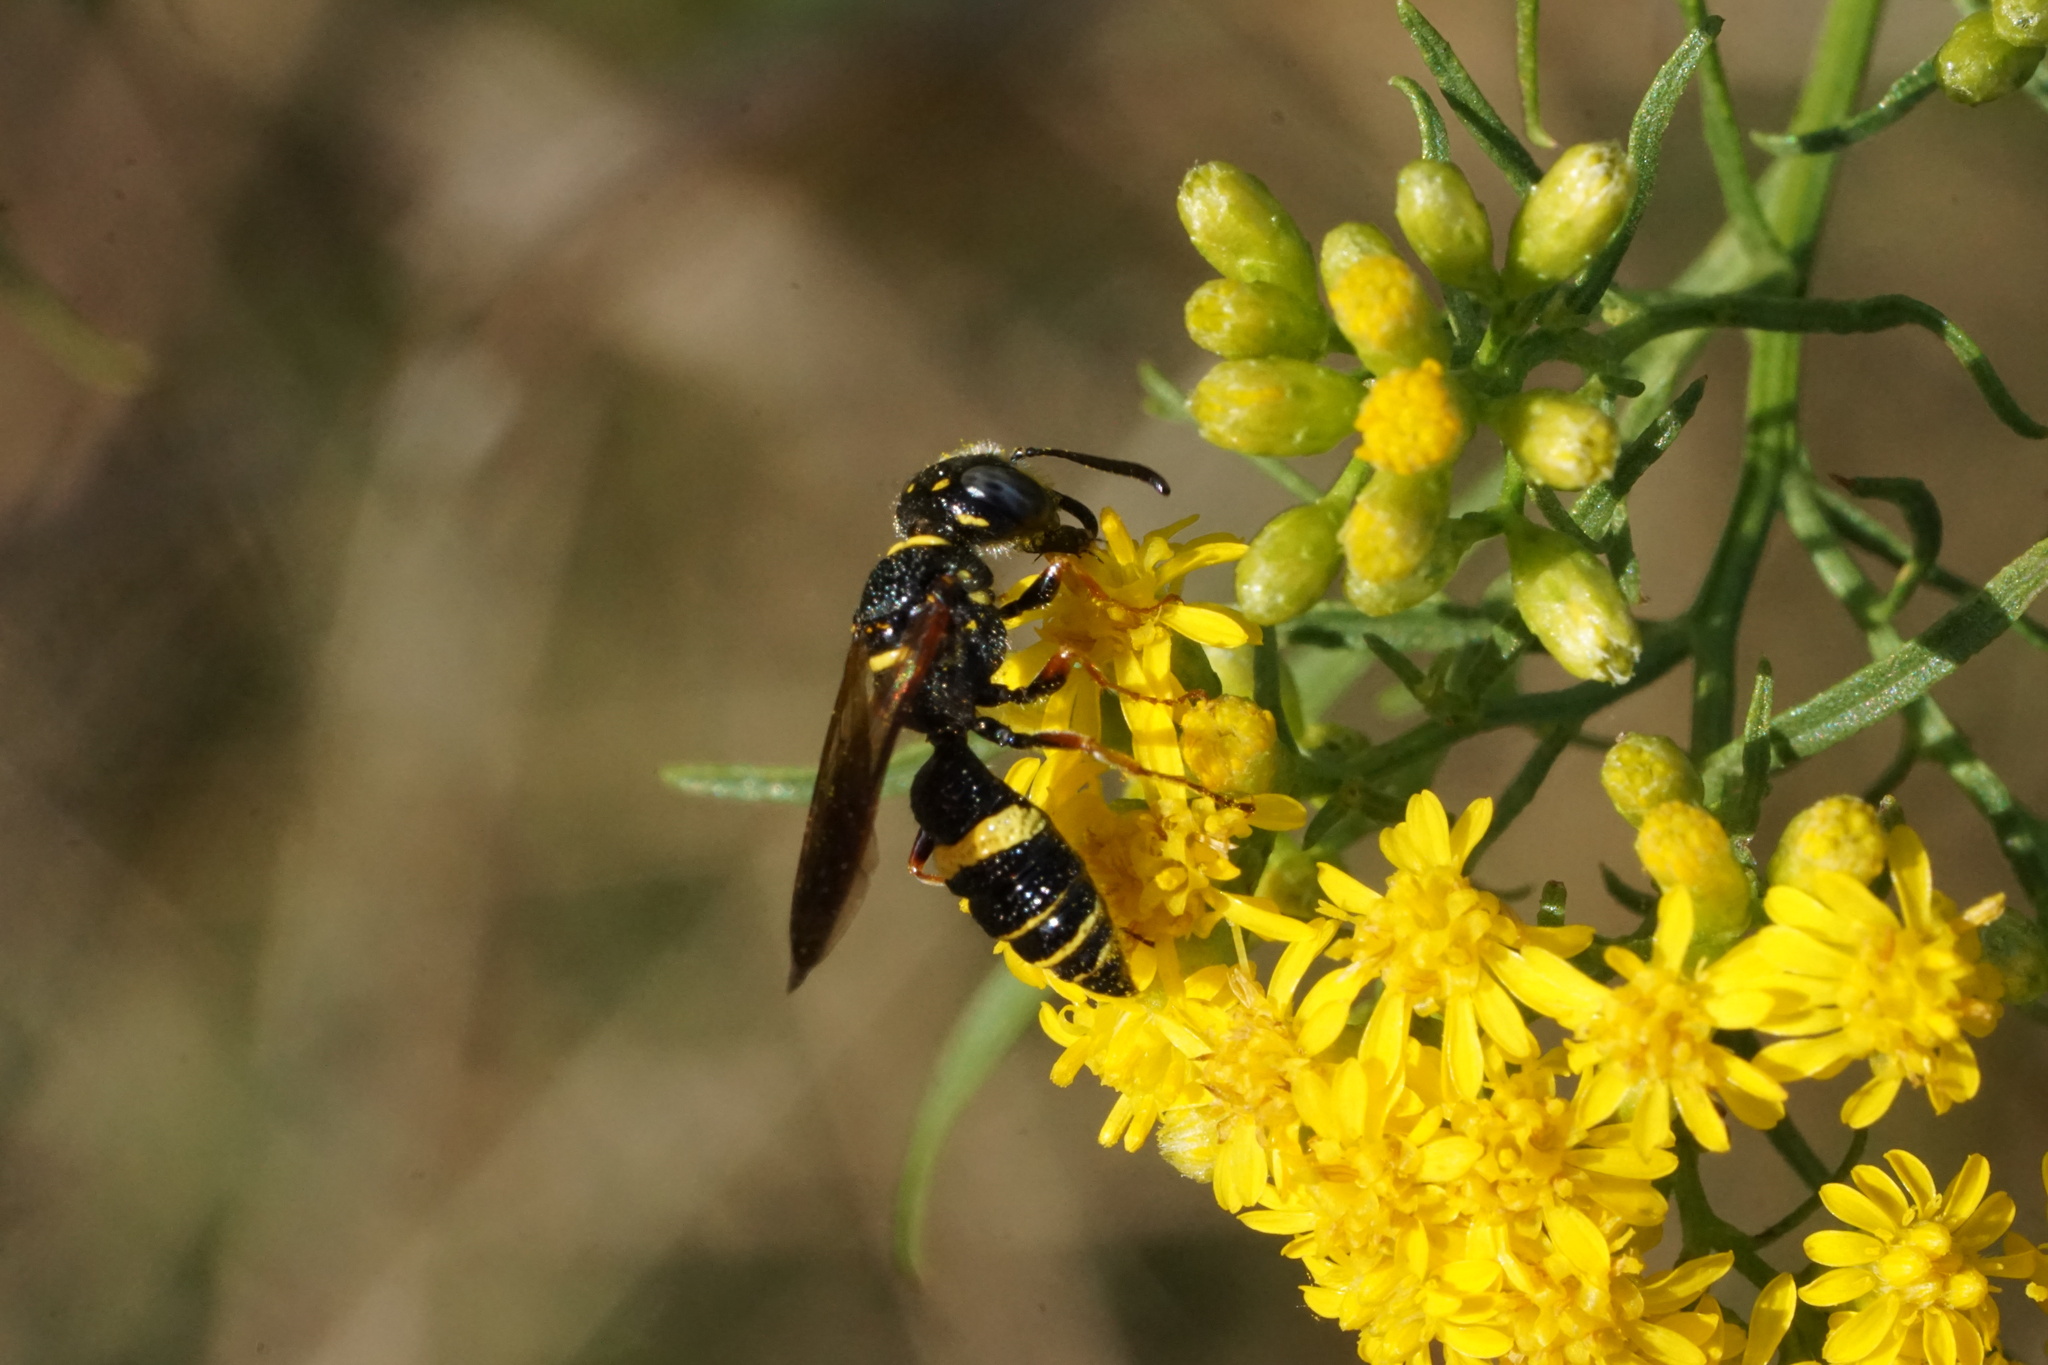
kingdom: Animalia
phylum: Arthropoda
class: Insecta
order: Hymenoptera
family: Crabronidae
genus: Philanthus
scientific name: Philanthus gibbosus
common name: Humped beewolf
